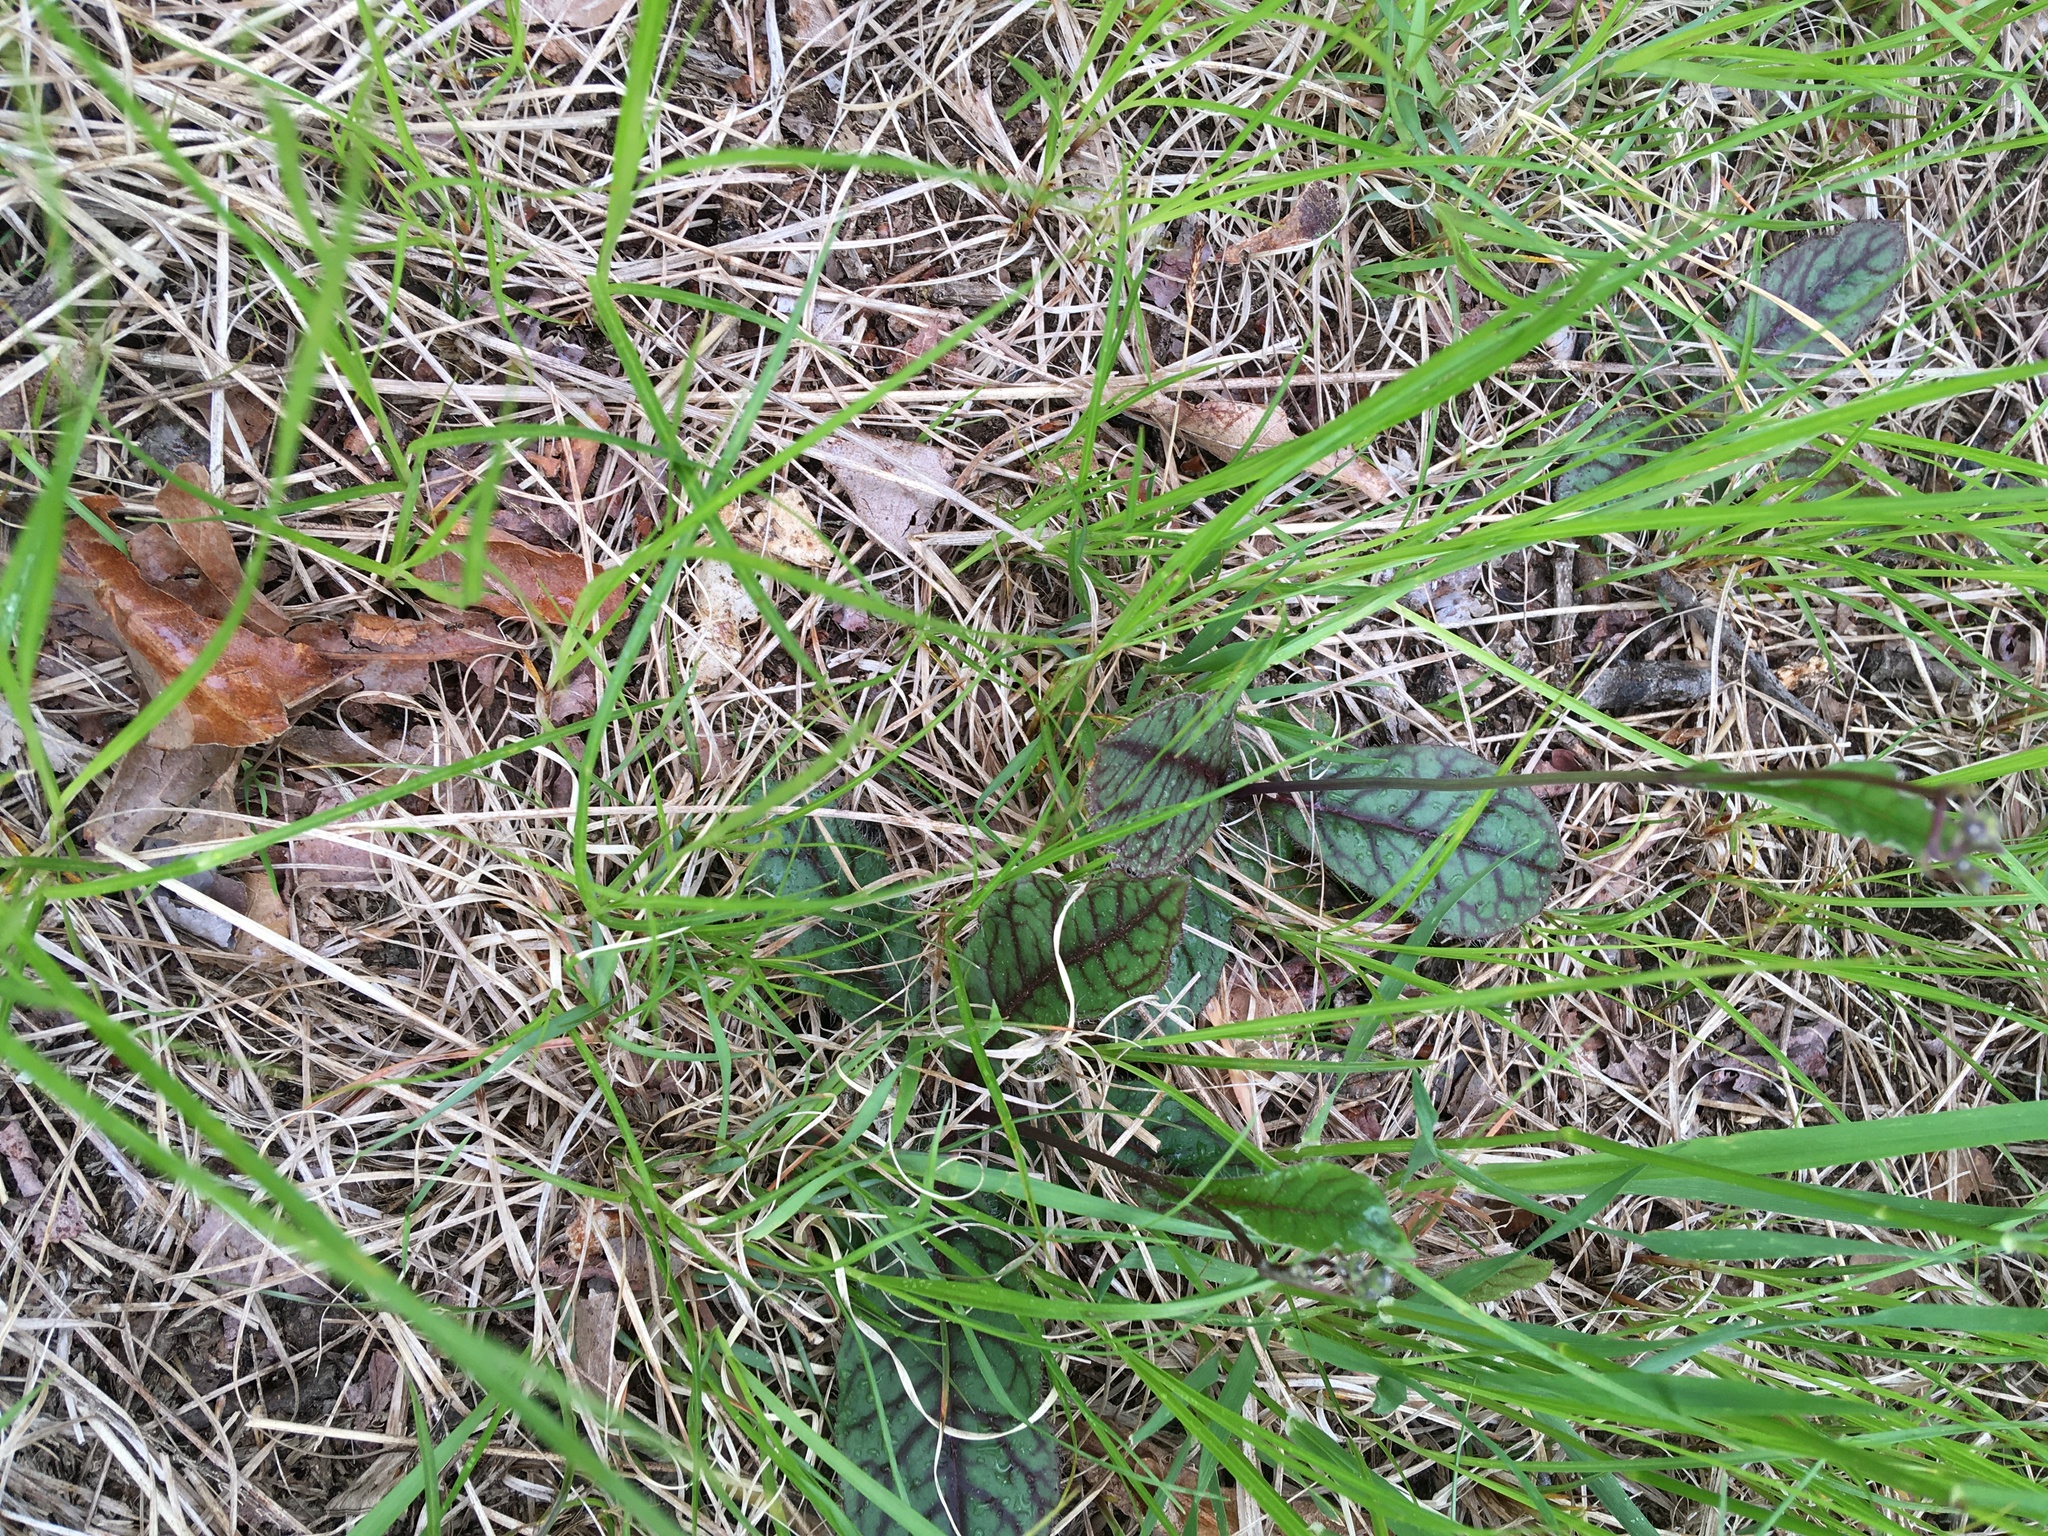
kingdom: Plantae
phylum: Tracheophyta
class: Magnoliopsida
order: Asterales
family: Asteraceae
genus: Hieracium
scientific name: Hieracium venosum
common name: Rattlesnake hawkweed
